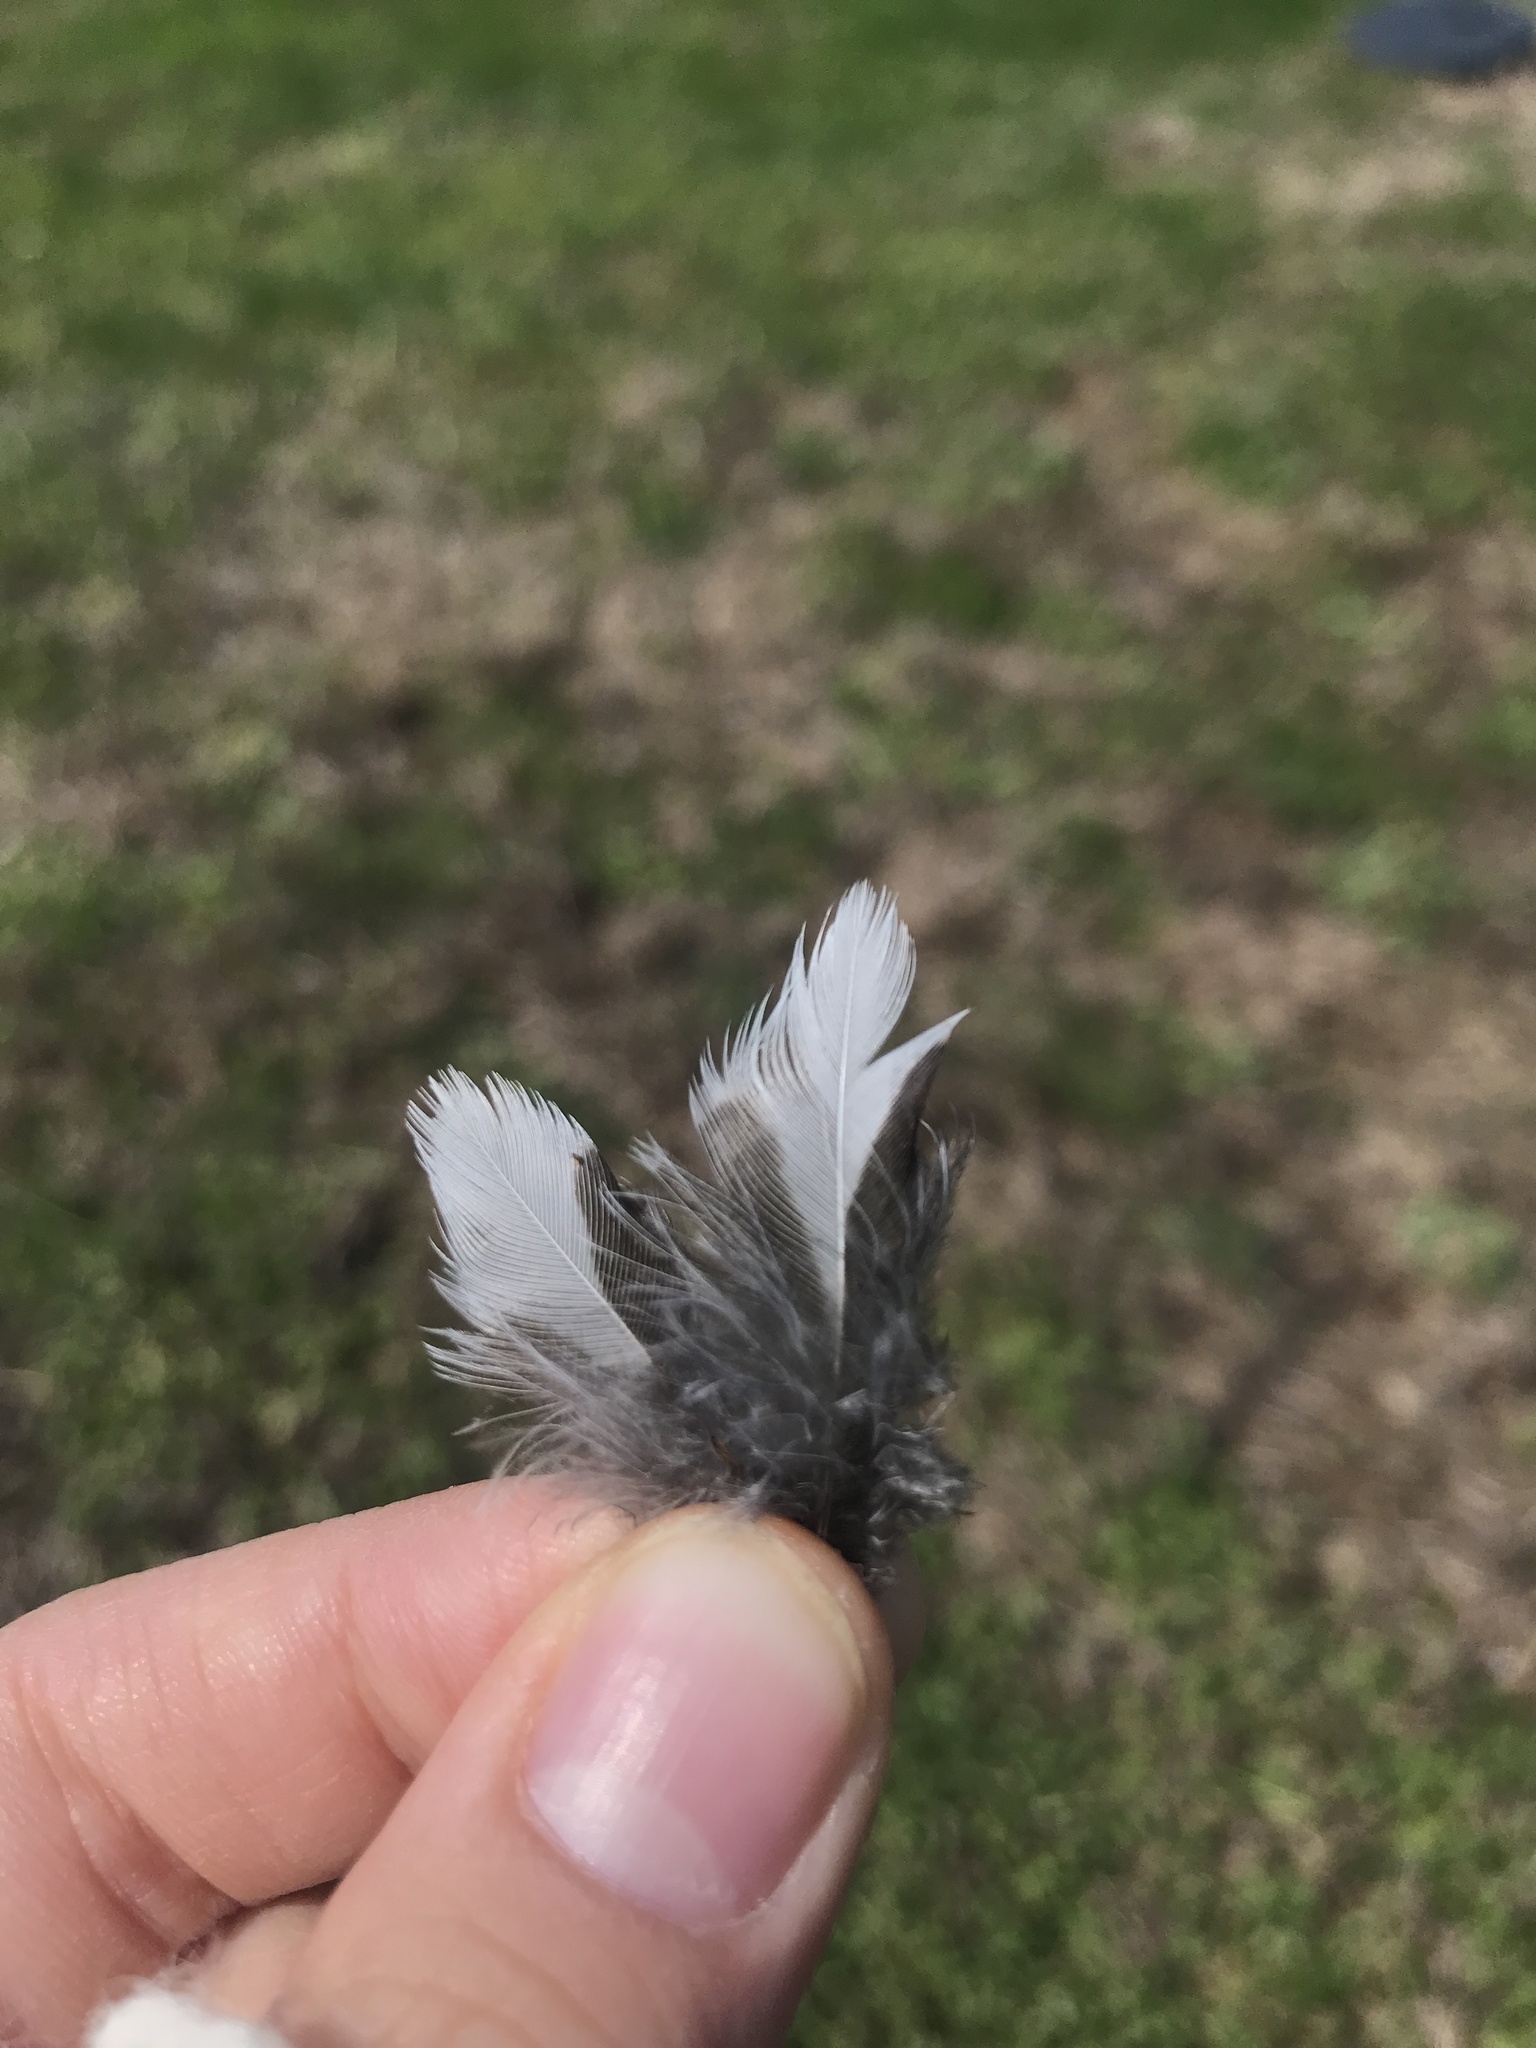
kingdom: Animalia
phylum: Chordata
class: Aves
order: Passeriformes
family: Turdidae
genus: Turdus
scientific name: Turdus migratorius
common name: American robin
